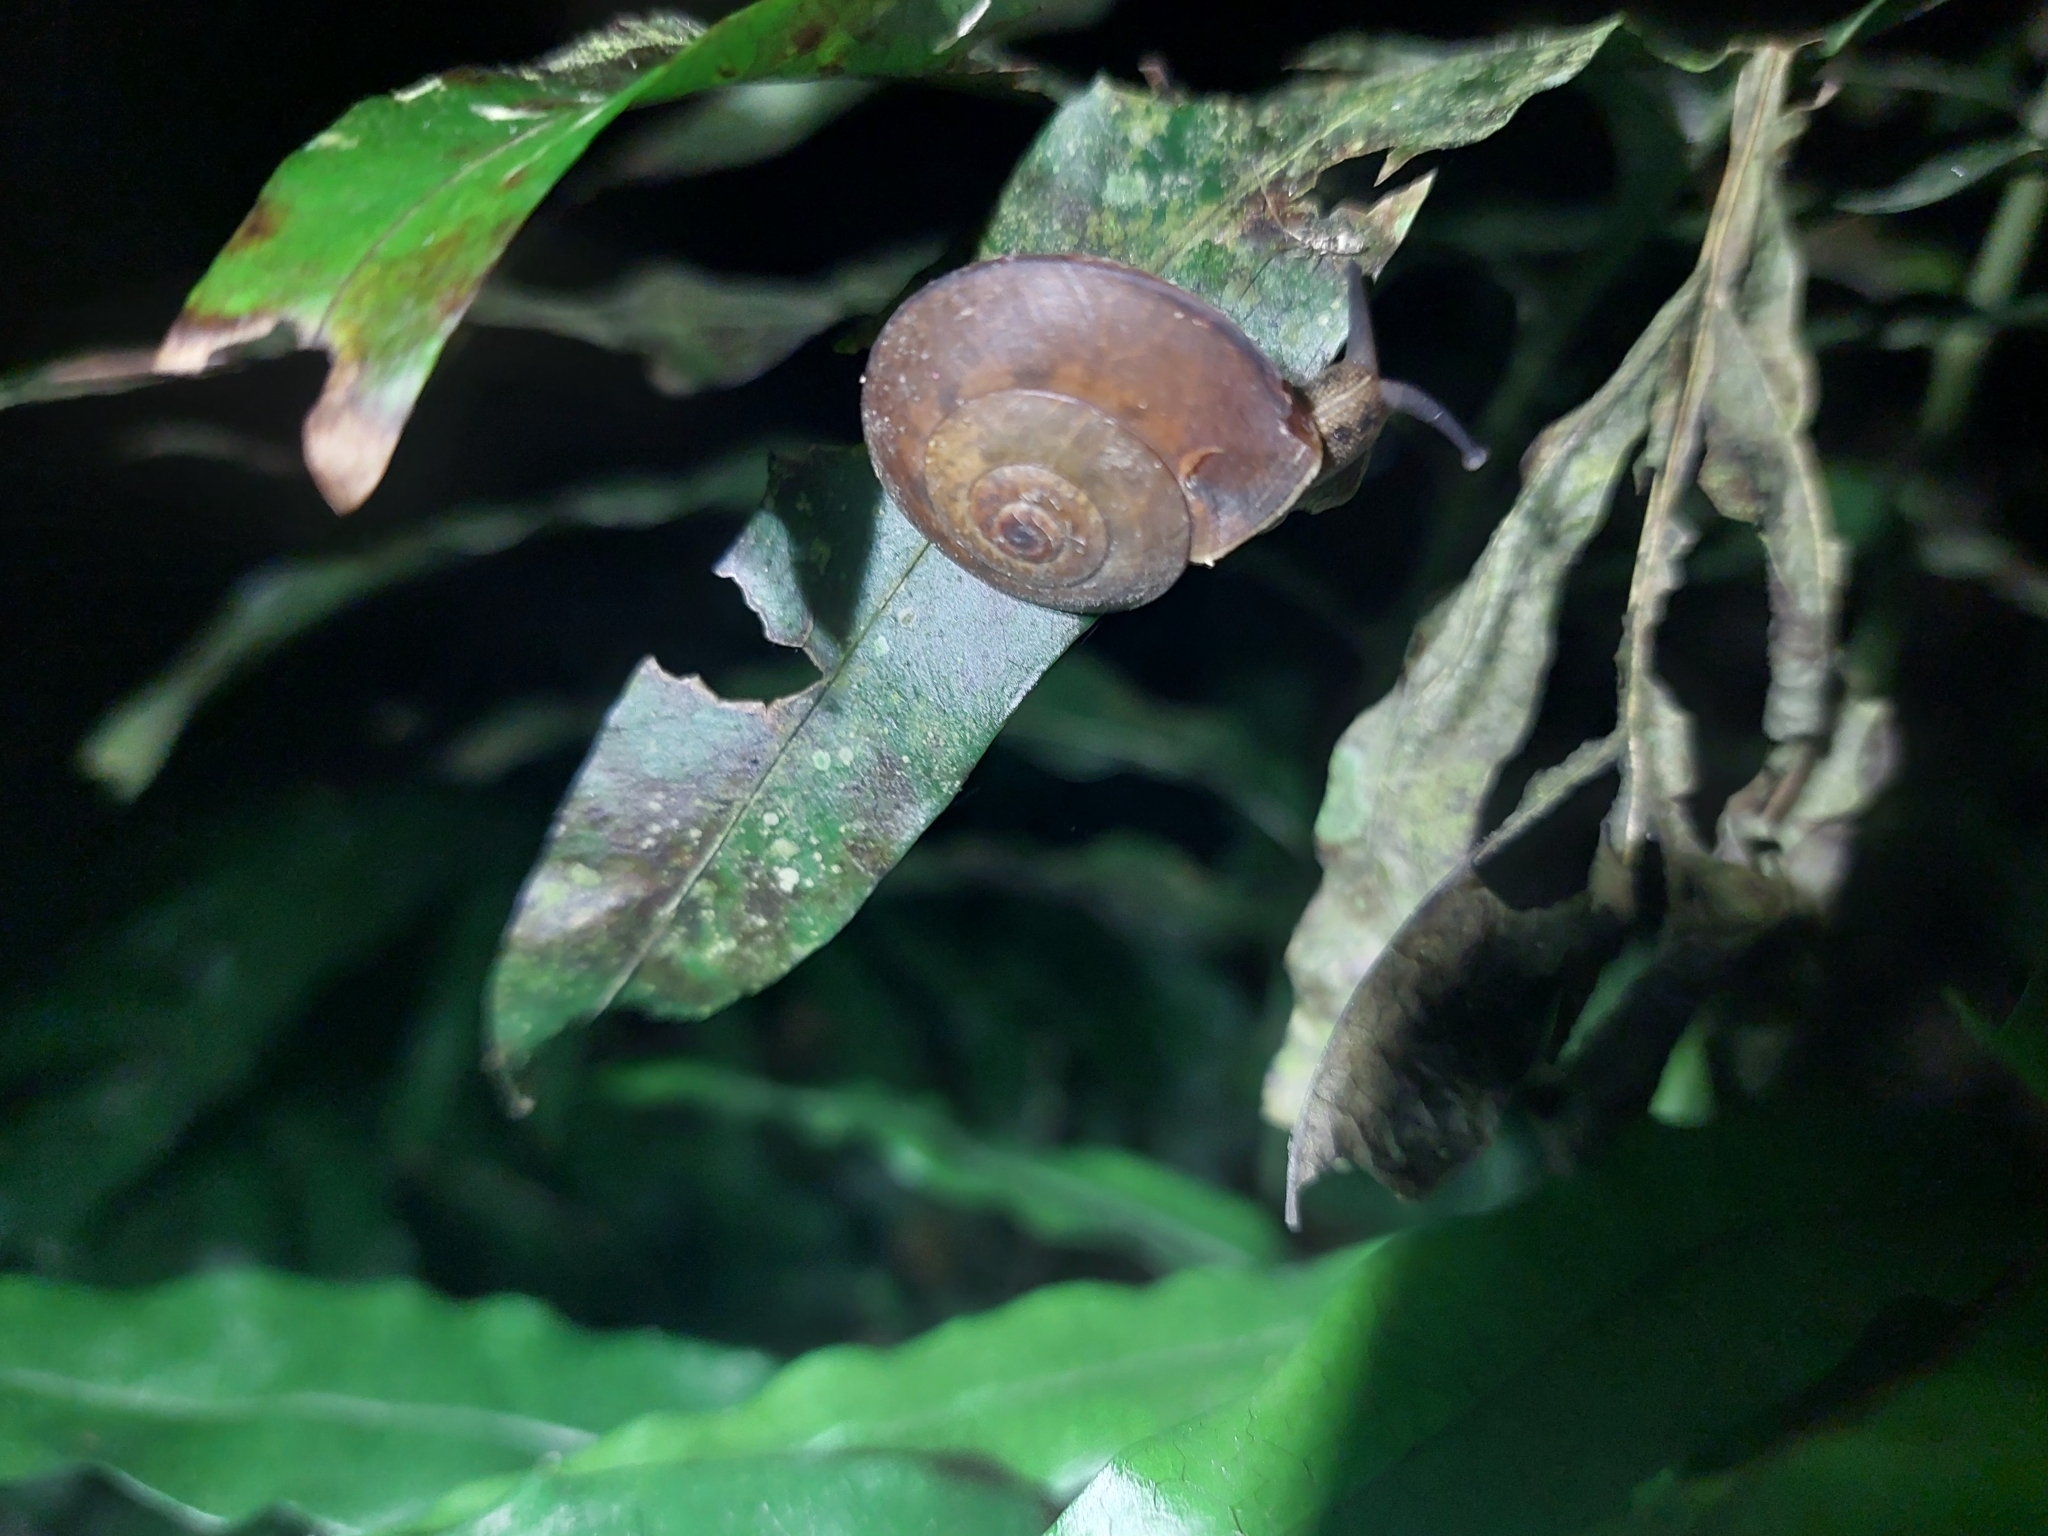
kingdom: Animalia
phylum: Mollusca
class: Gastropoda
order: Stylommatophora
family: Camaenidae
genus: Satsuma
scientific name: Satsuma mellea
